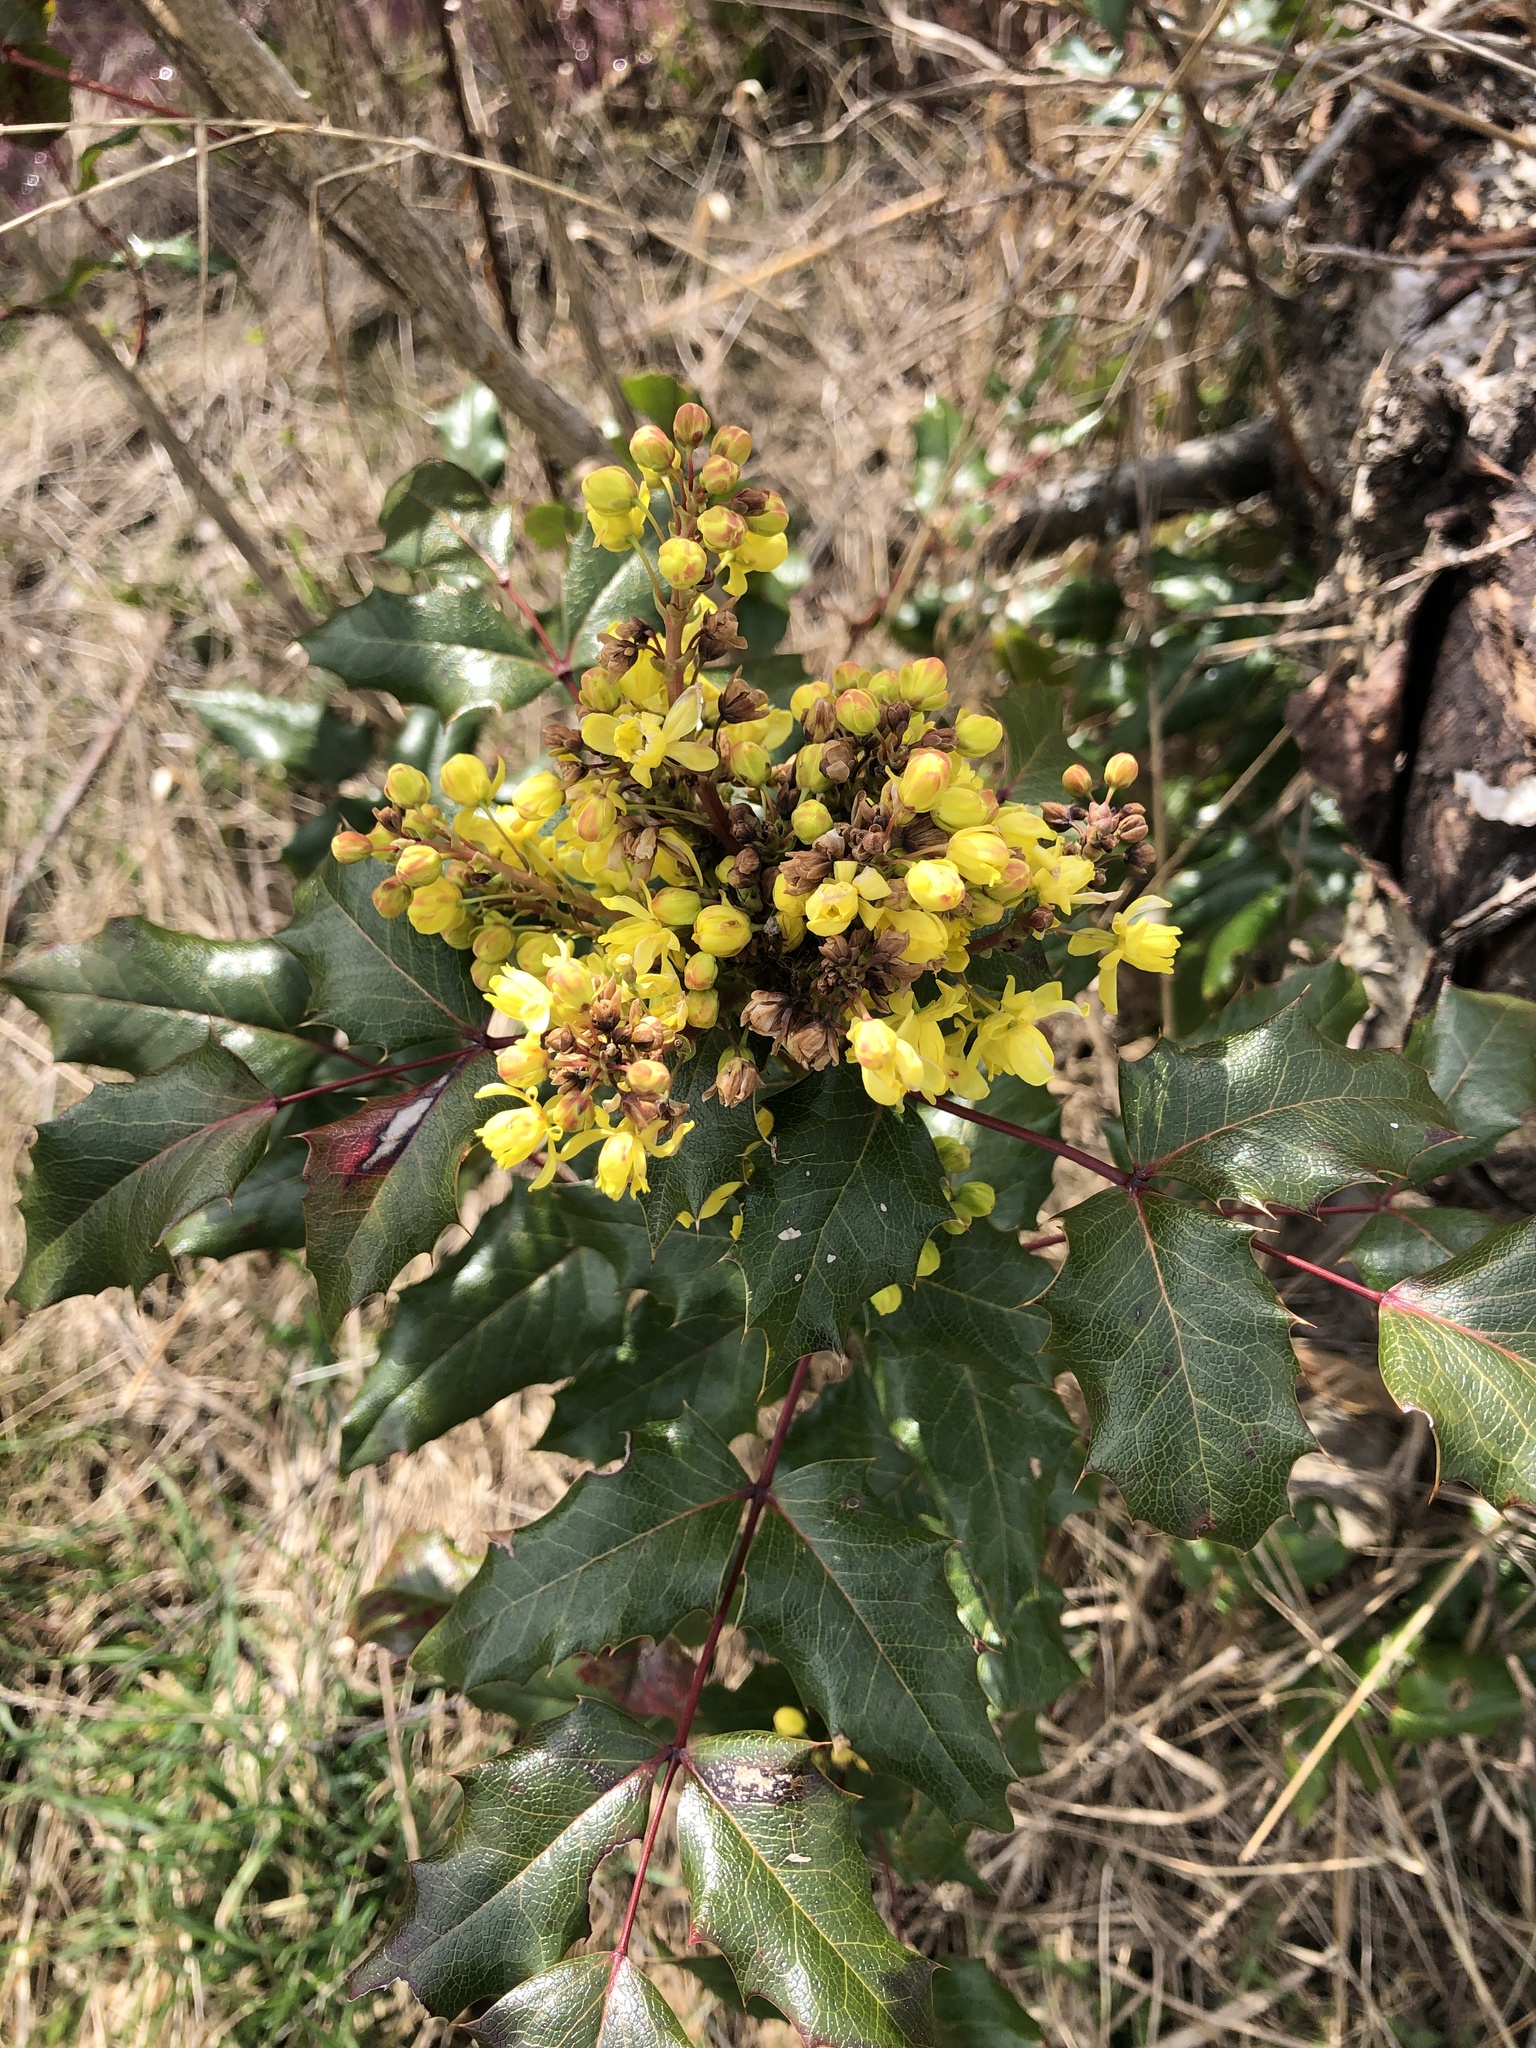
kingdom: Plantae
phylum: Tracheophyta
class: Magnoliopsida
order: Ranunculales
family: Berberidaceae
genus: Mahonia
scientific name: Mahonia aquifolium
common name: Oregon-grape
